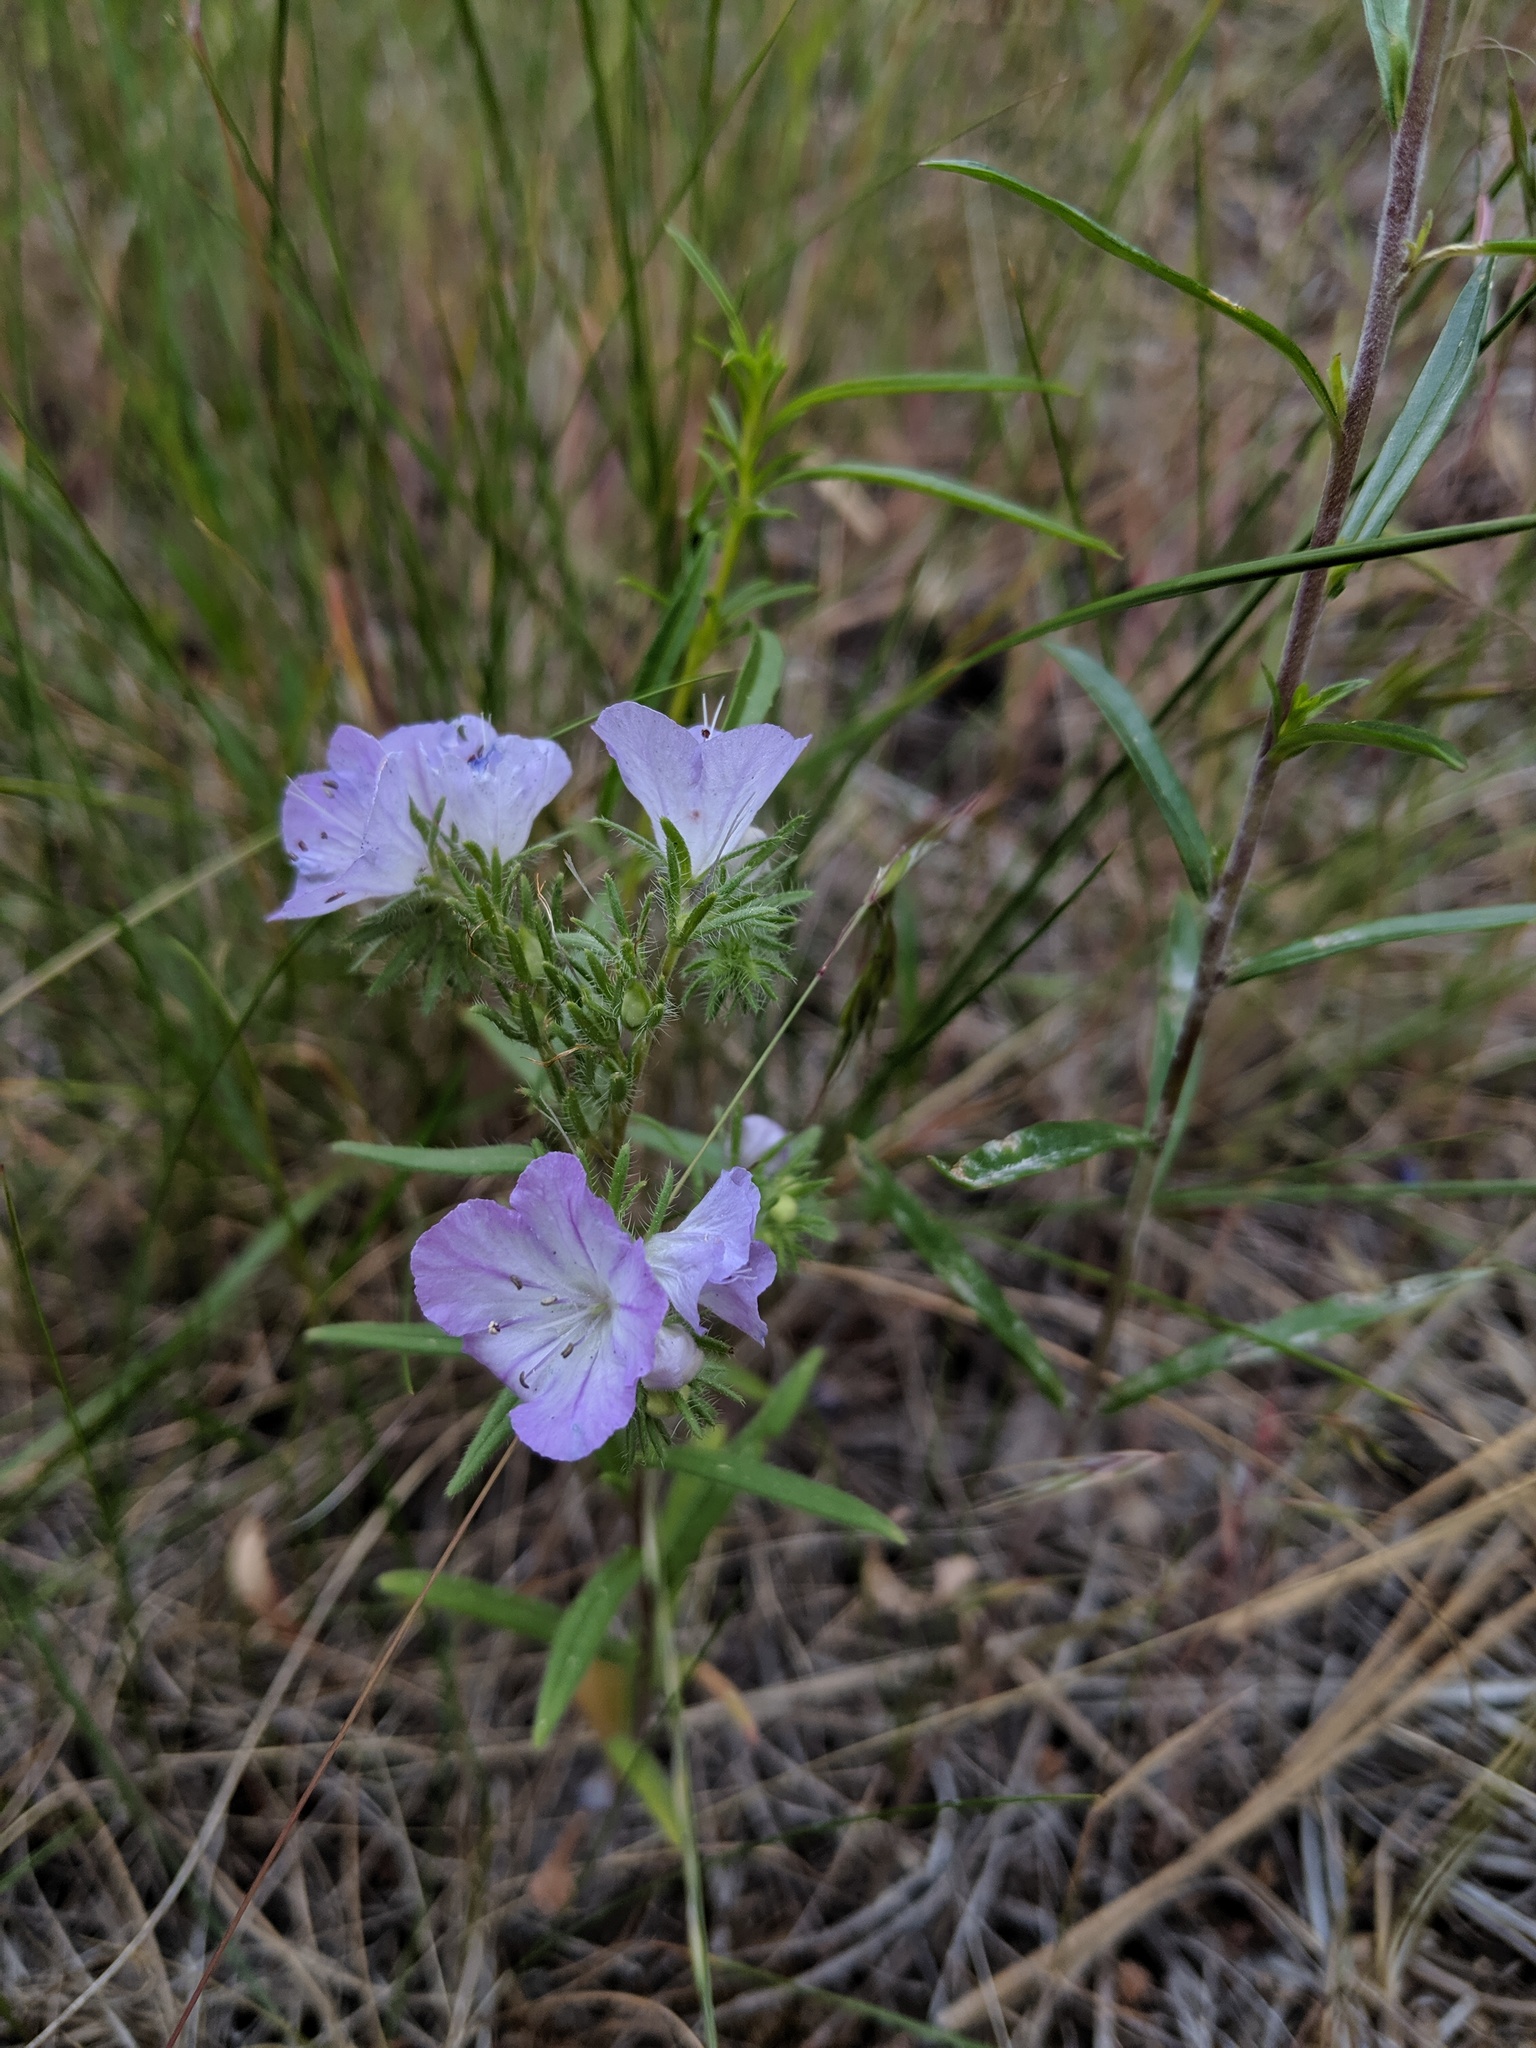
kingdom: Plantae
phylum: Tracheophyta
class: Magnoliopsida
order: Boraginales
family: Hydrophyllaceae
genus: Phacelia
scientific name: Phacelia linearis
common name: Linear-leaved phacelia
